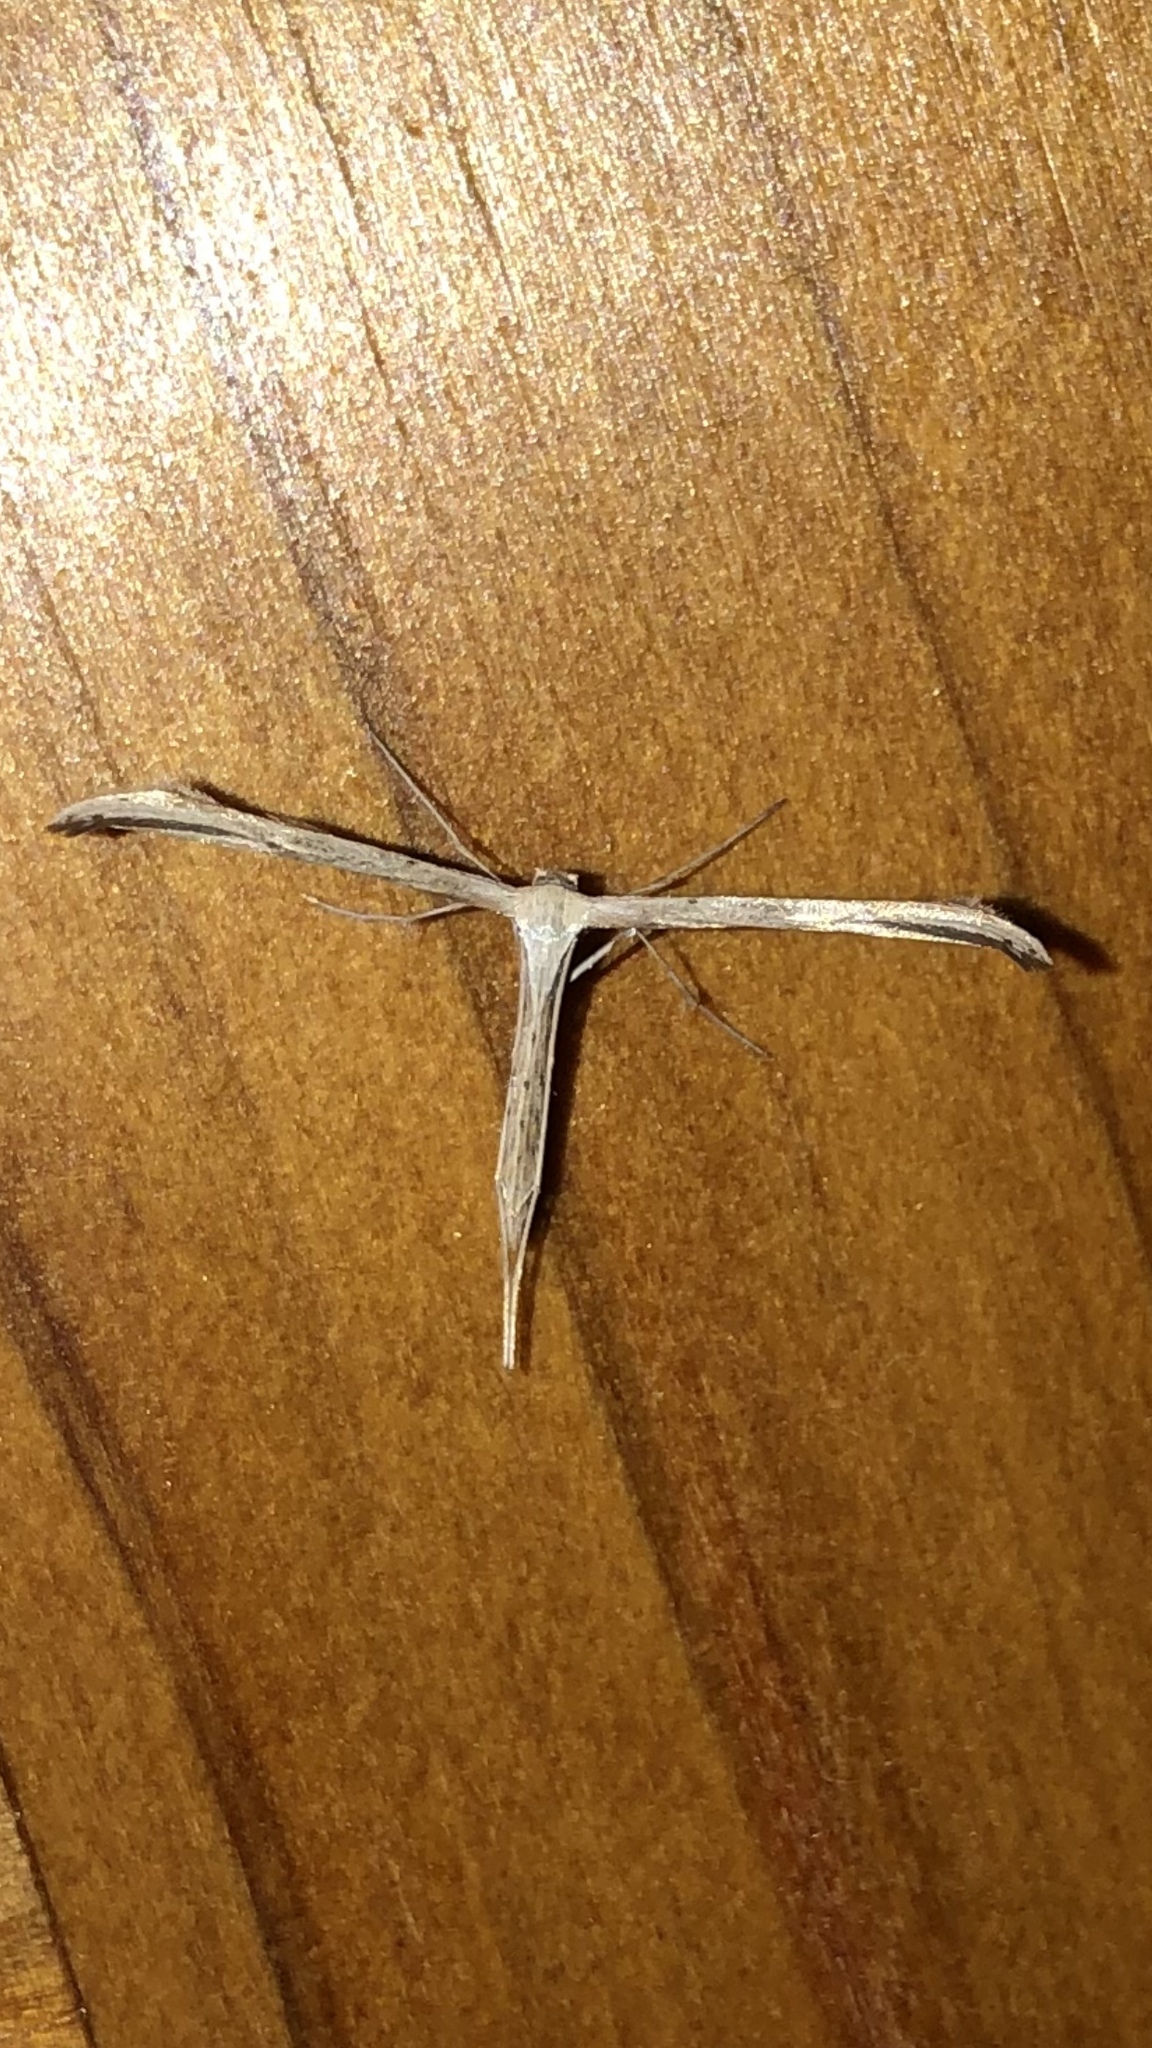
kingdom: Animalia
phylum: Arthropoda
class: Insecta
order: Lepidoptera
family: Pterophoridae
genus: Emmelina
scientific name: Emmelina monodactyla
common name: Common plume
